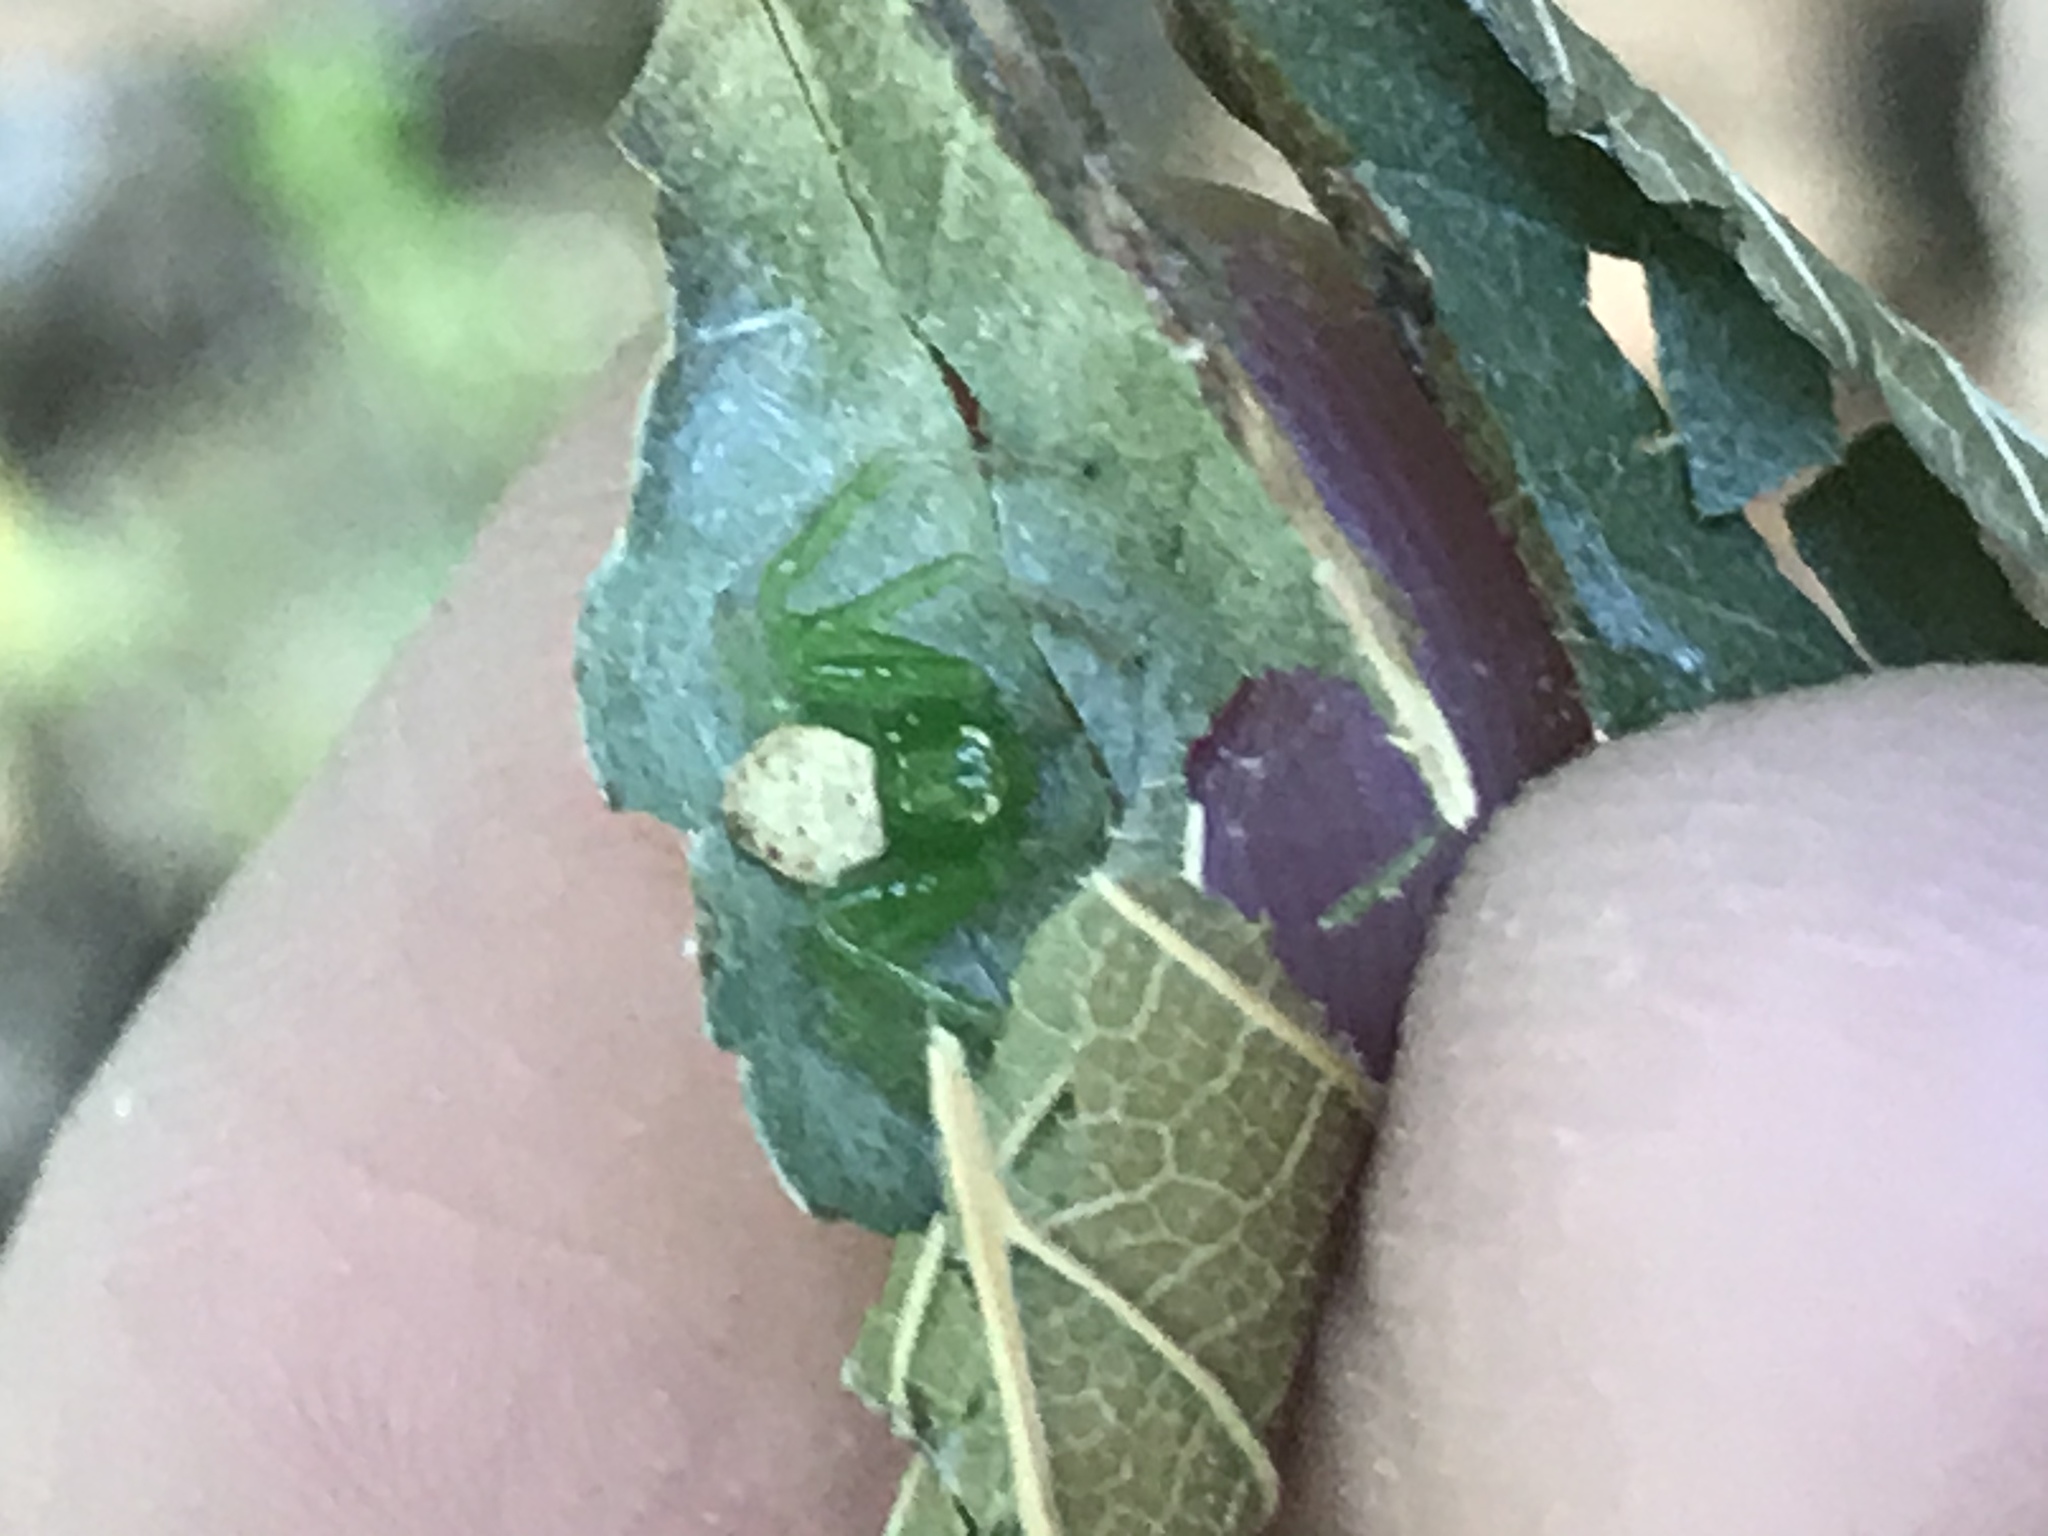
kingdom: Animalia
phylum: Arthropoda
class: Arachnida
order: Araneae
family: Thomisidae
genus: Synema
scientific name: Synema viridans
